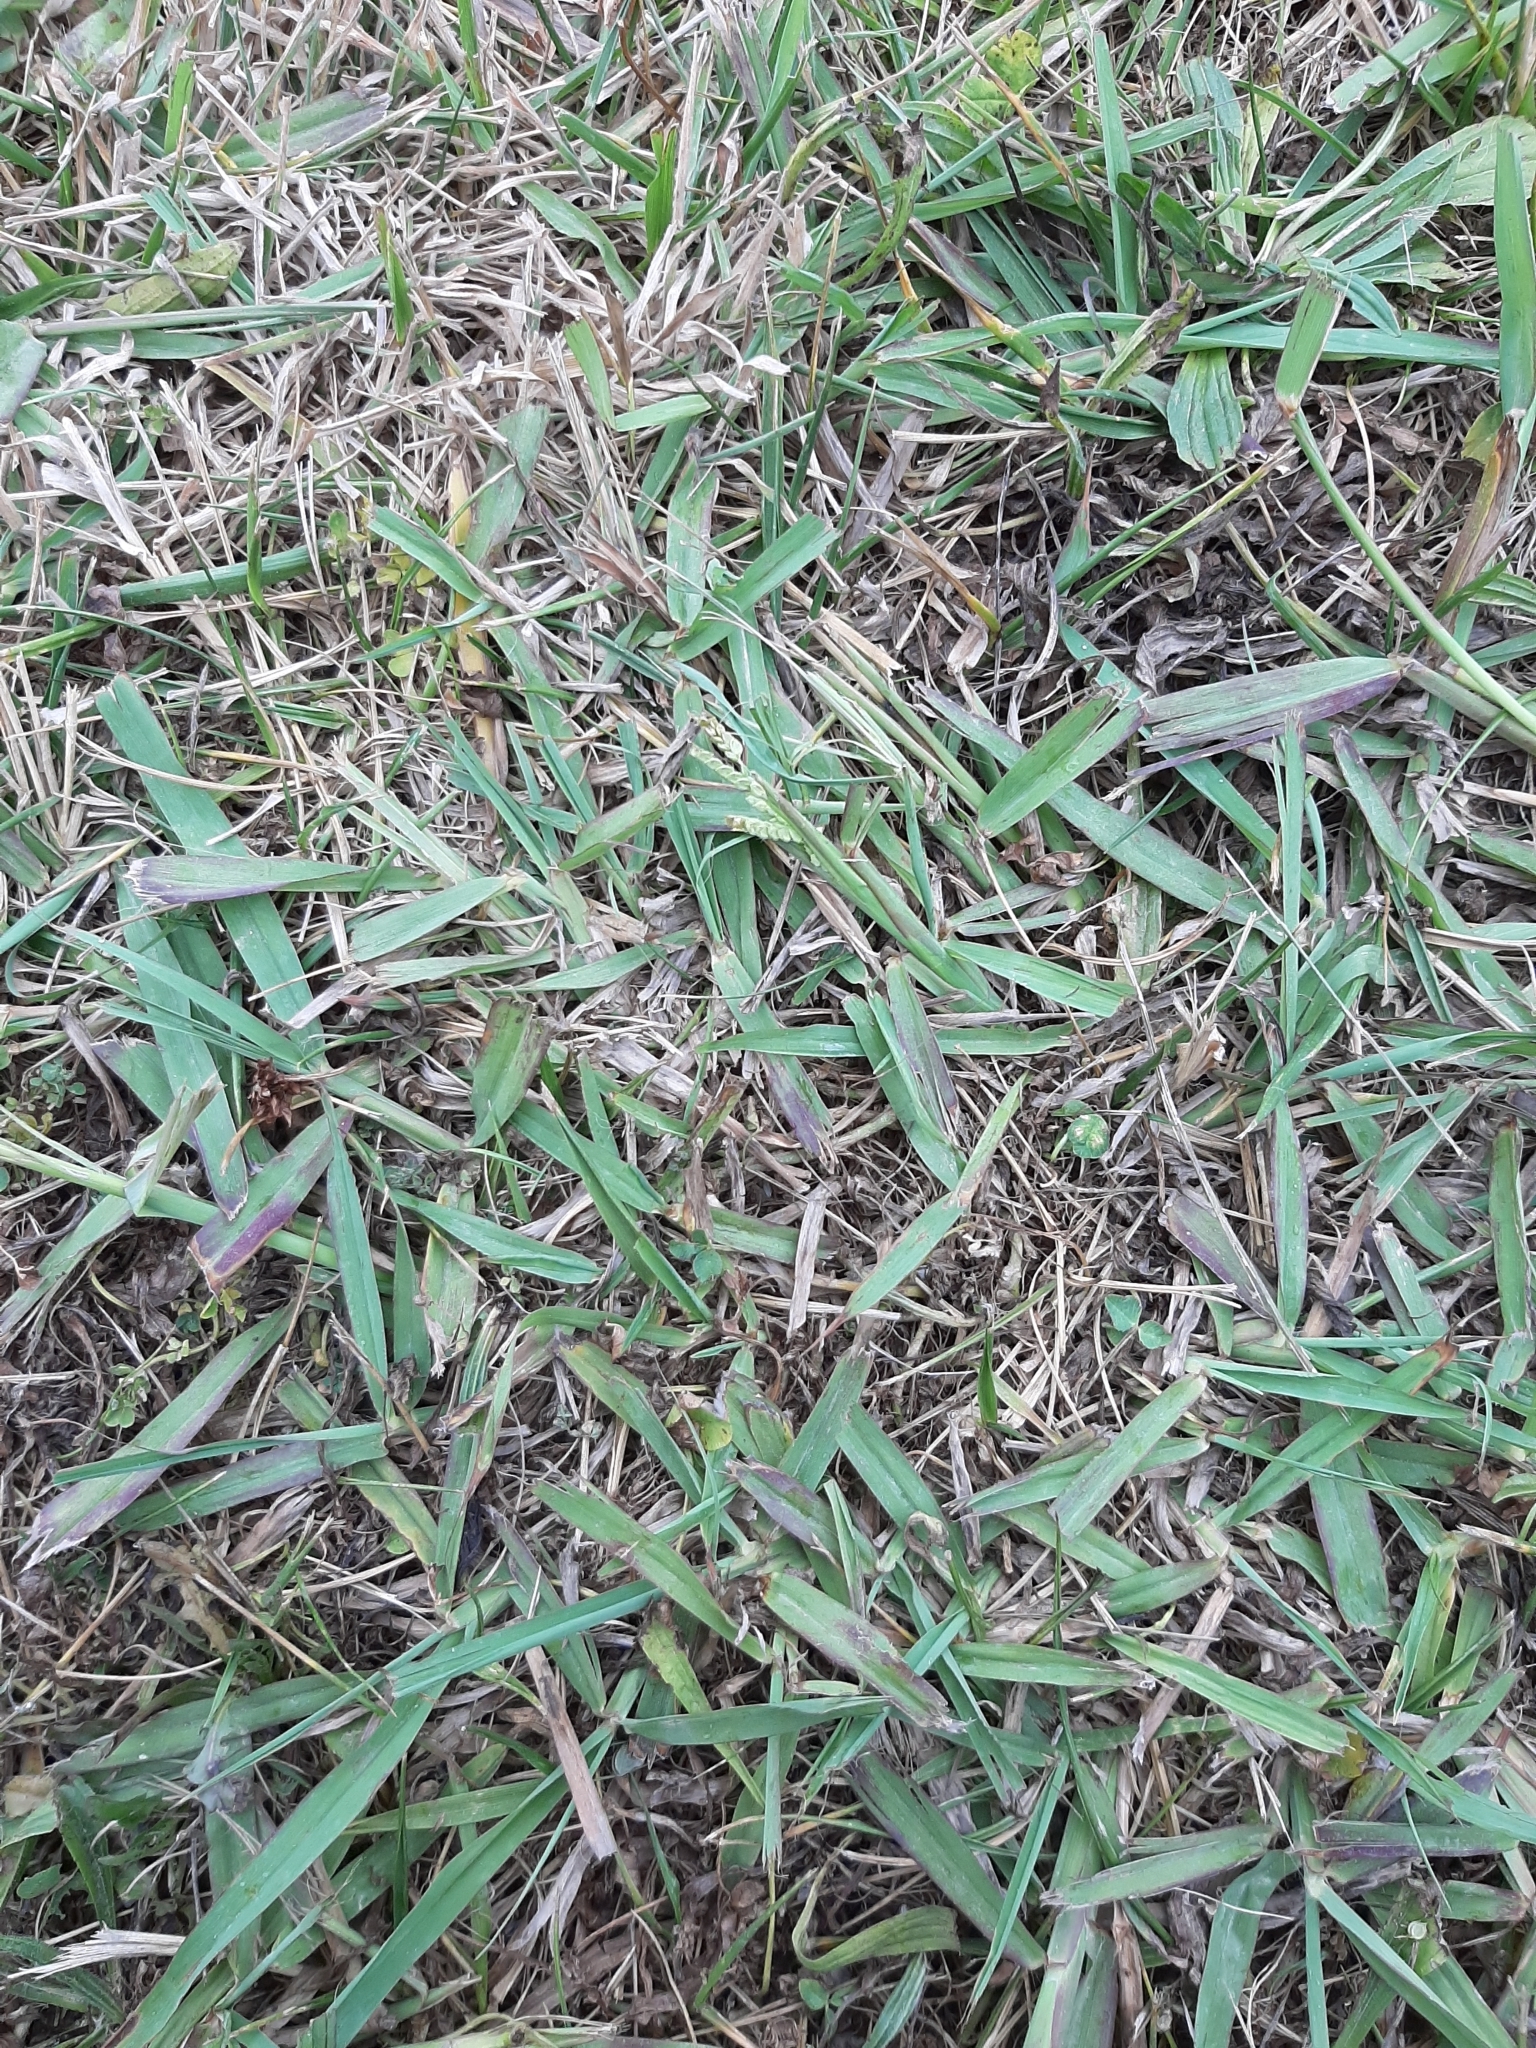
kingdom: Plantae
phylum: Tracheophyta
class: Liliopsida
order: Poales
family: Poaceae
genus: Paspalum
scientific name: Paspalum dilatatum
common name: Dallisgrass
